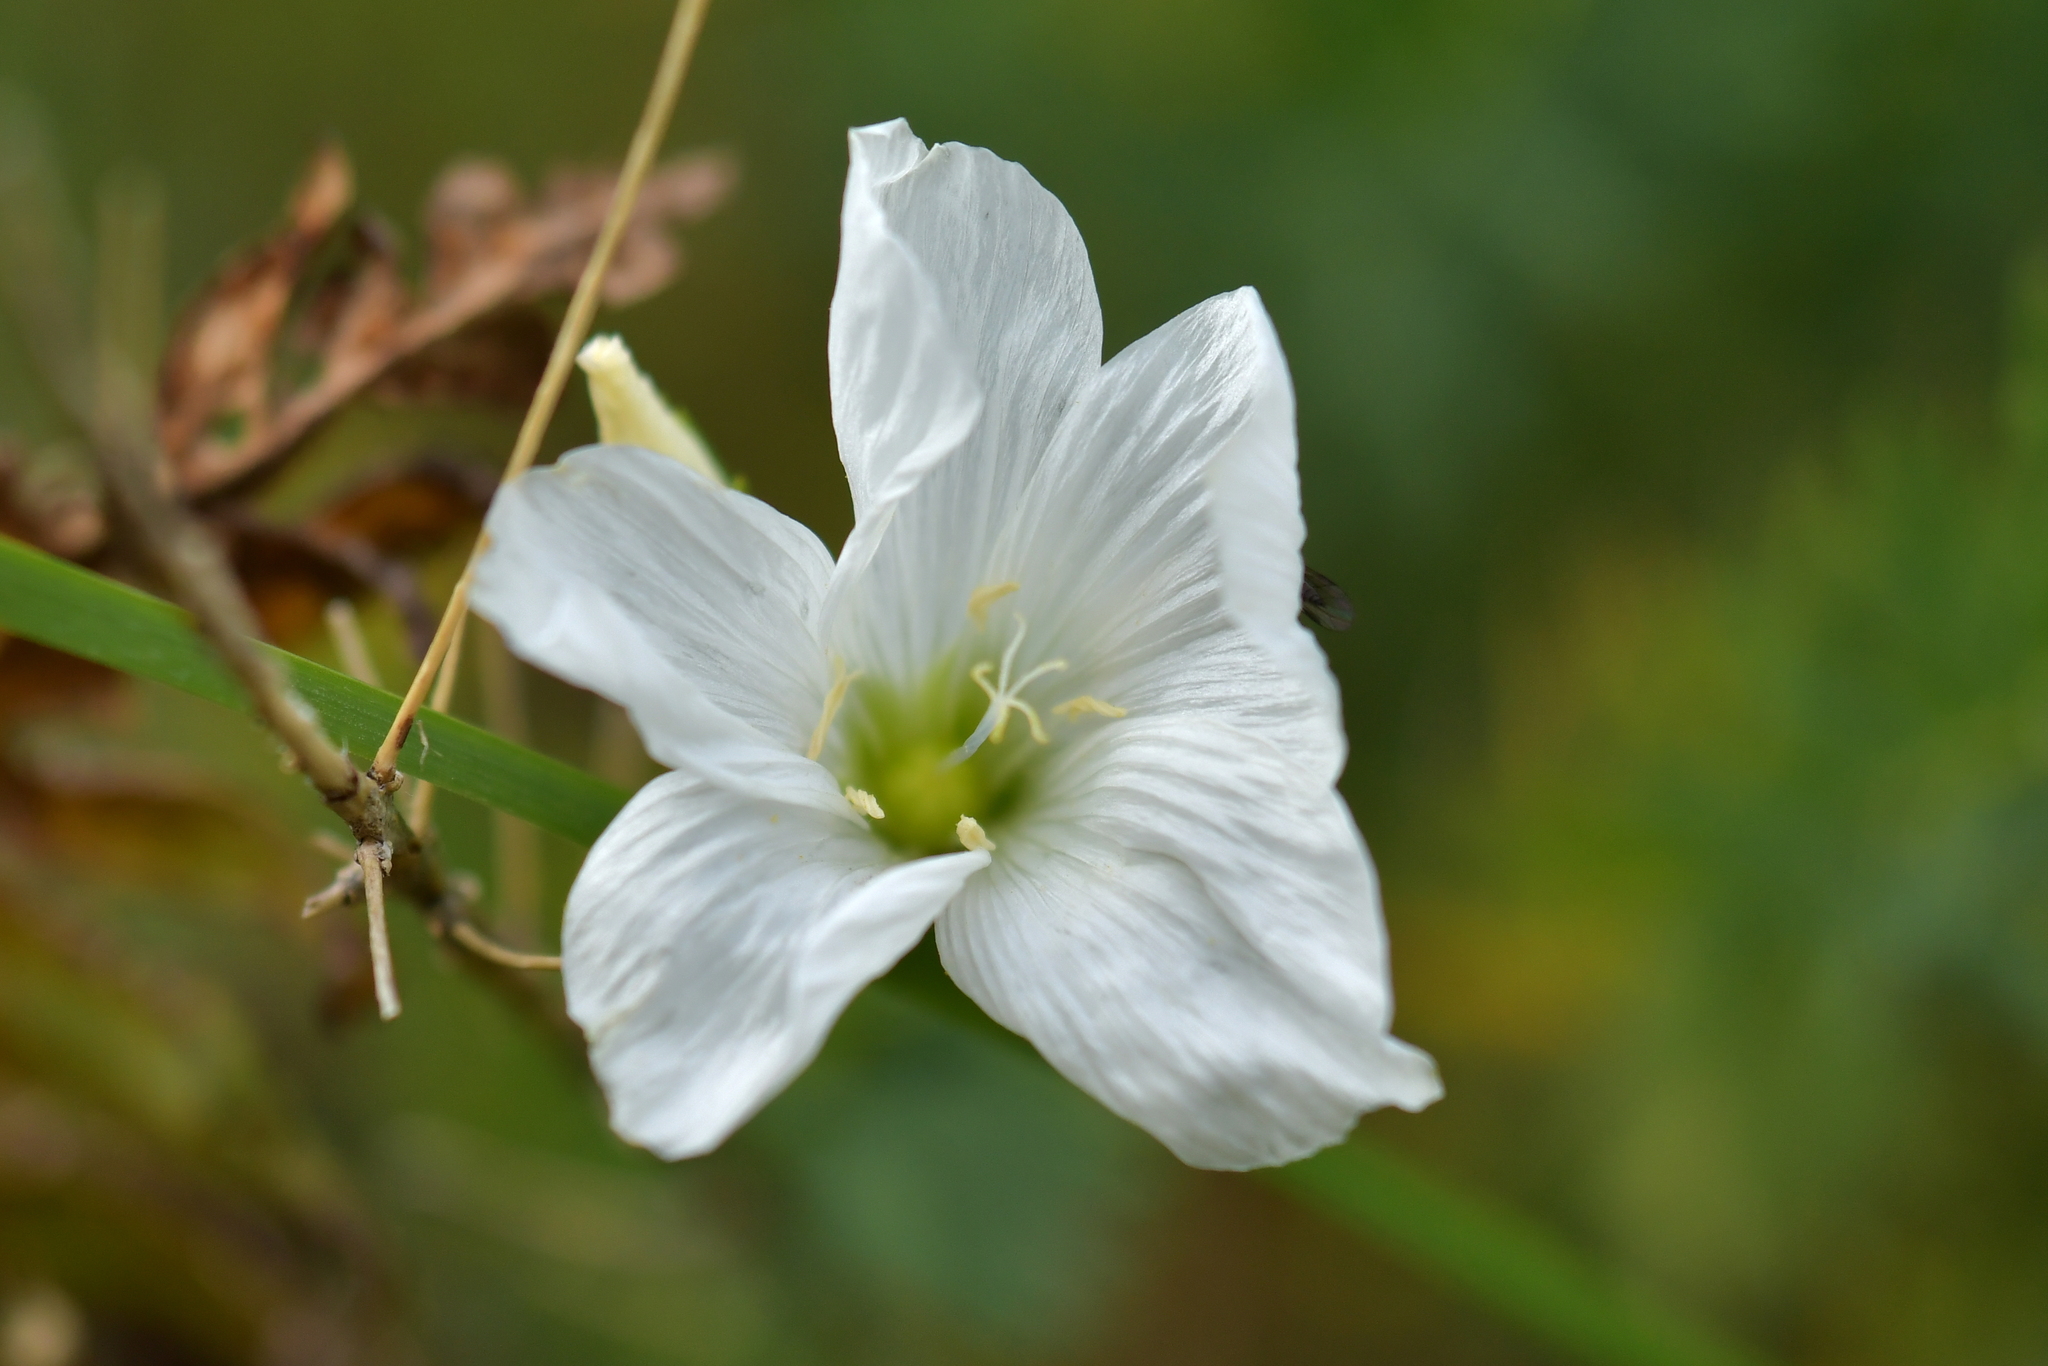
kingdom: Plantae
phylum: Tracheophyta
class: Magnoliopsida
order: Malpighiales
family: Linaceae
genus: Linum
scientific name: Linum monogynum
